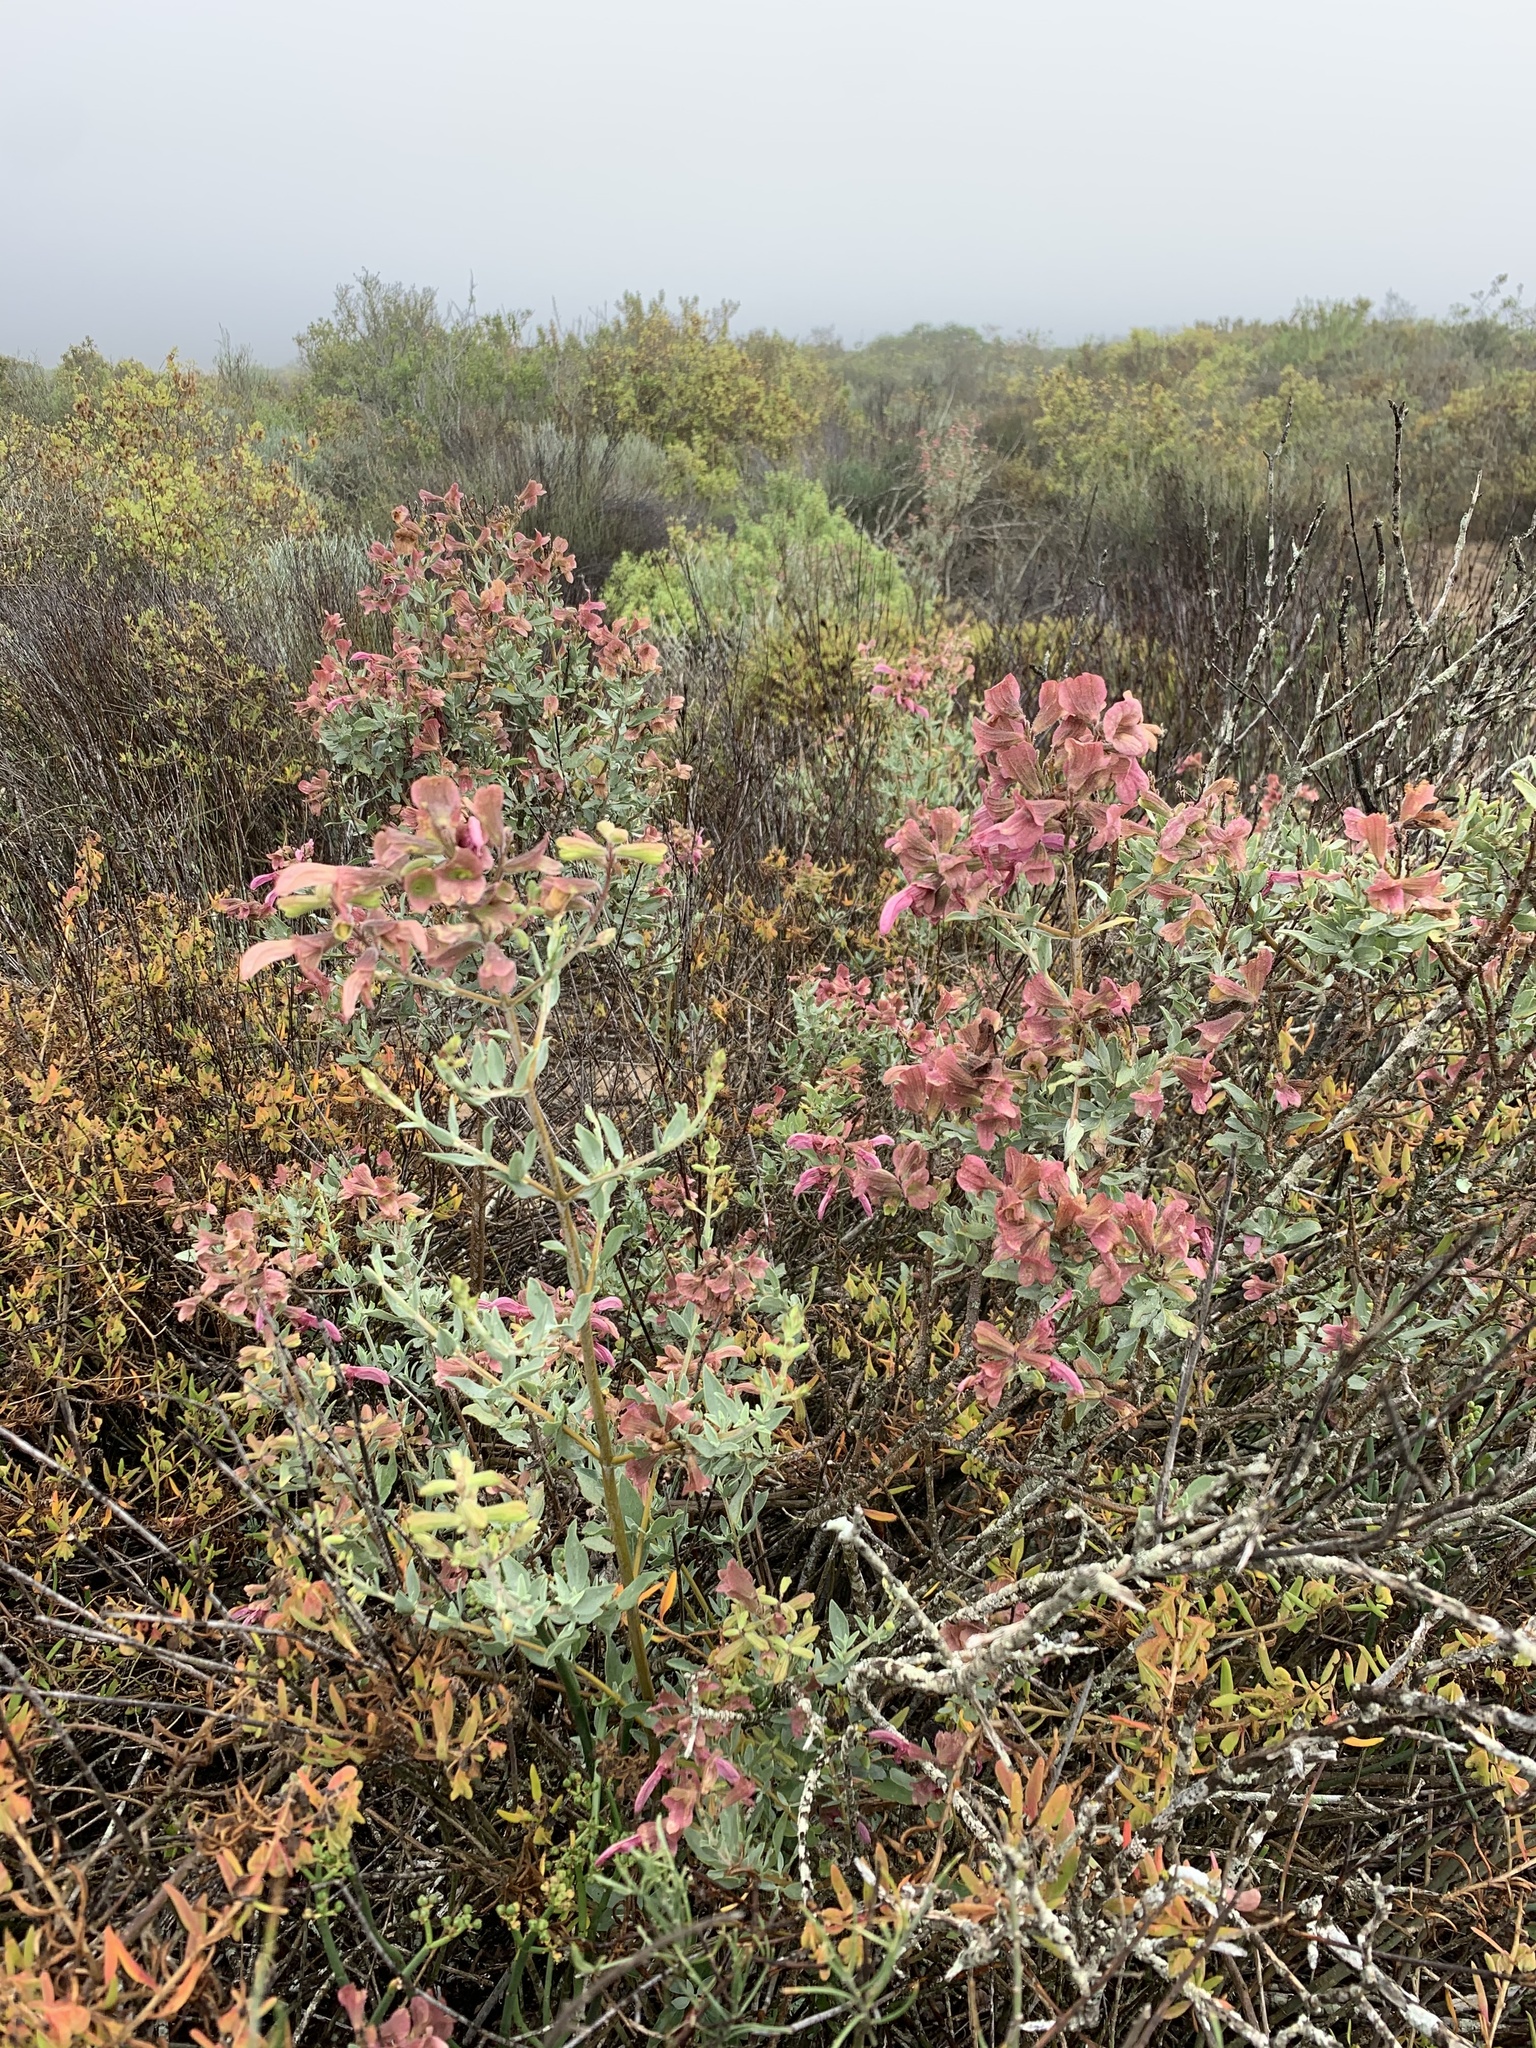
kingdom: Plantae
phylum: Tracheophyta
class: Magnoliopsida
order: Lamiales
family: Lamiaceae
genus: Salvia
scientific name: Salvia lanceolata
